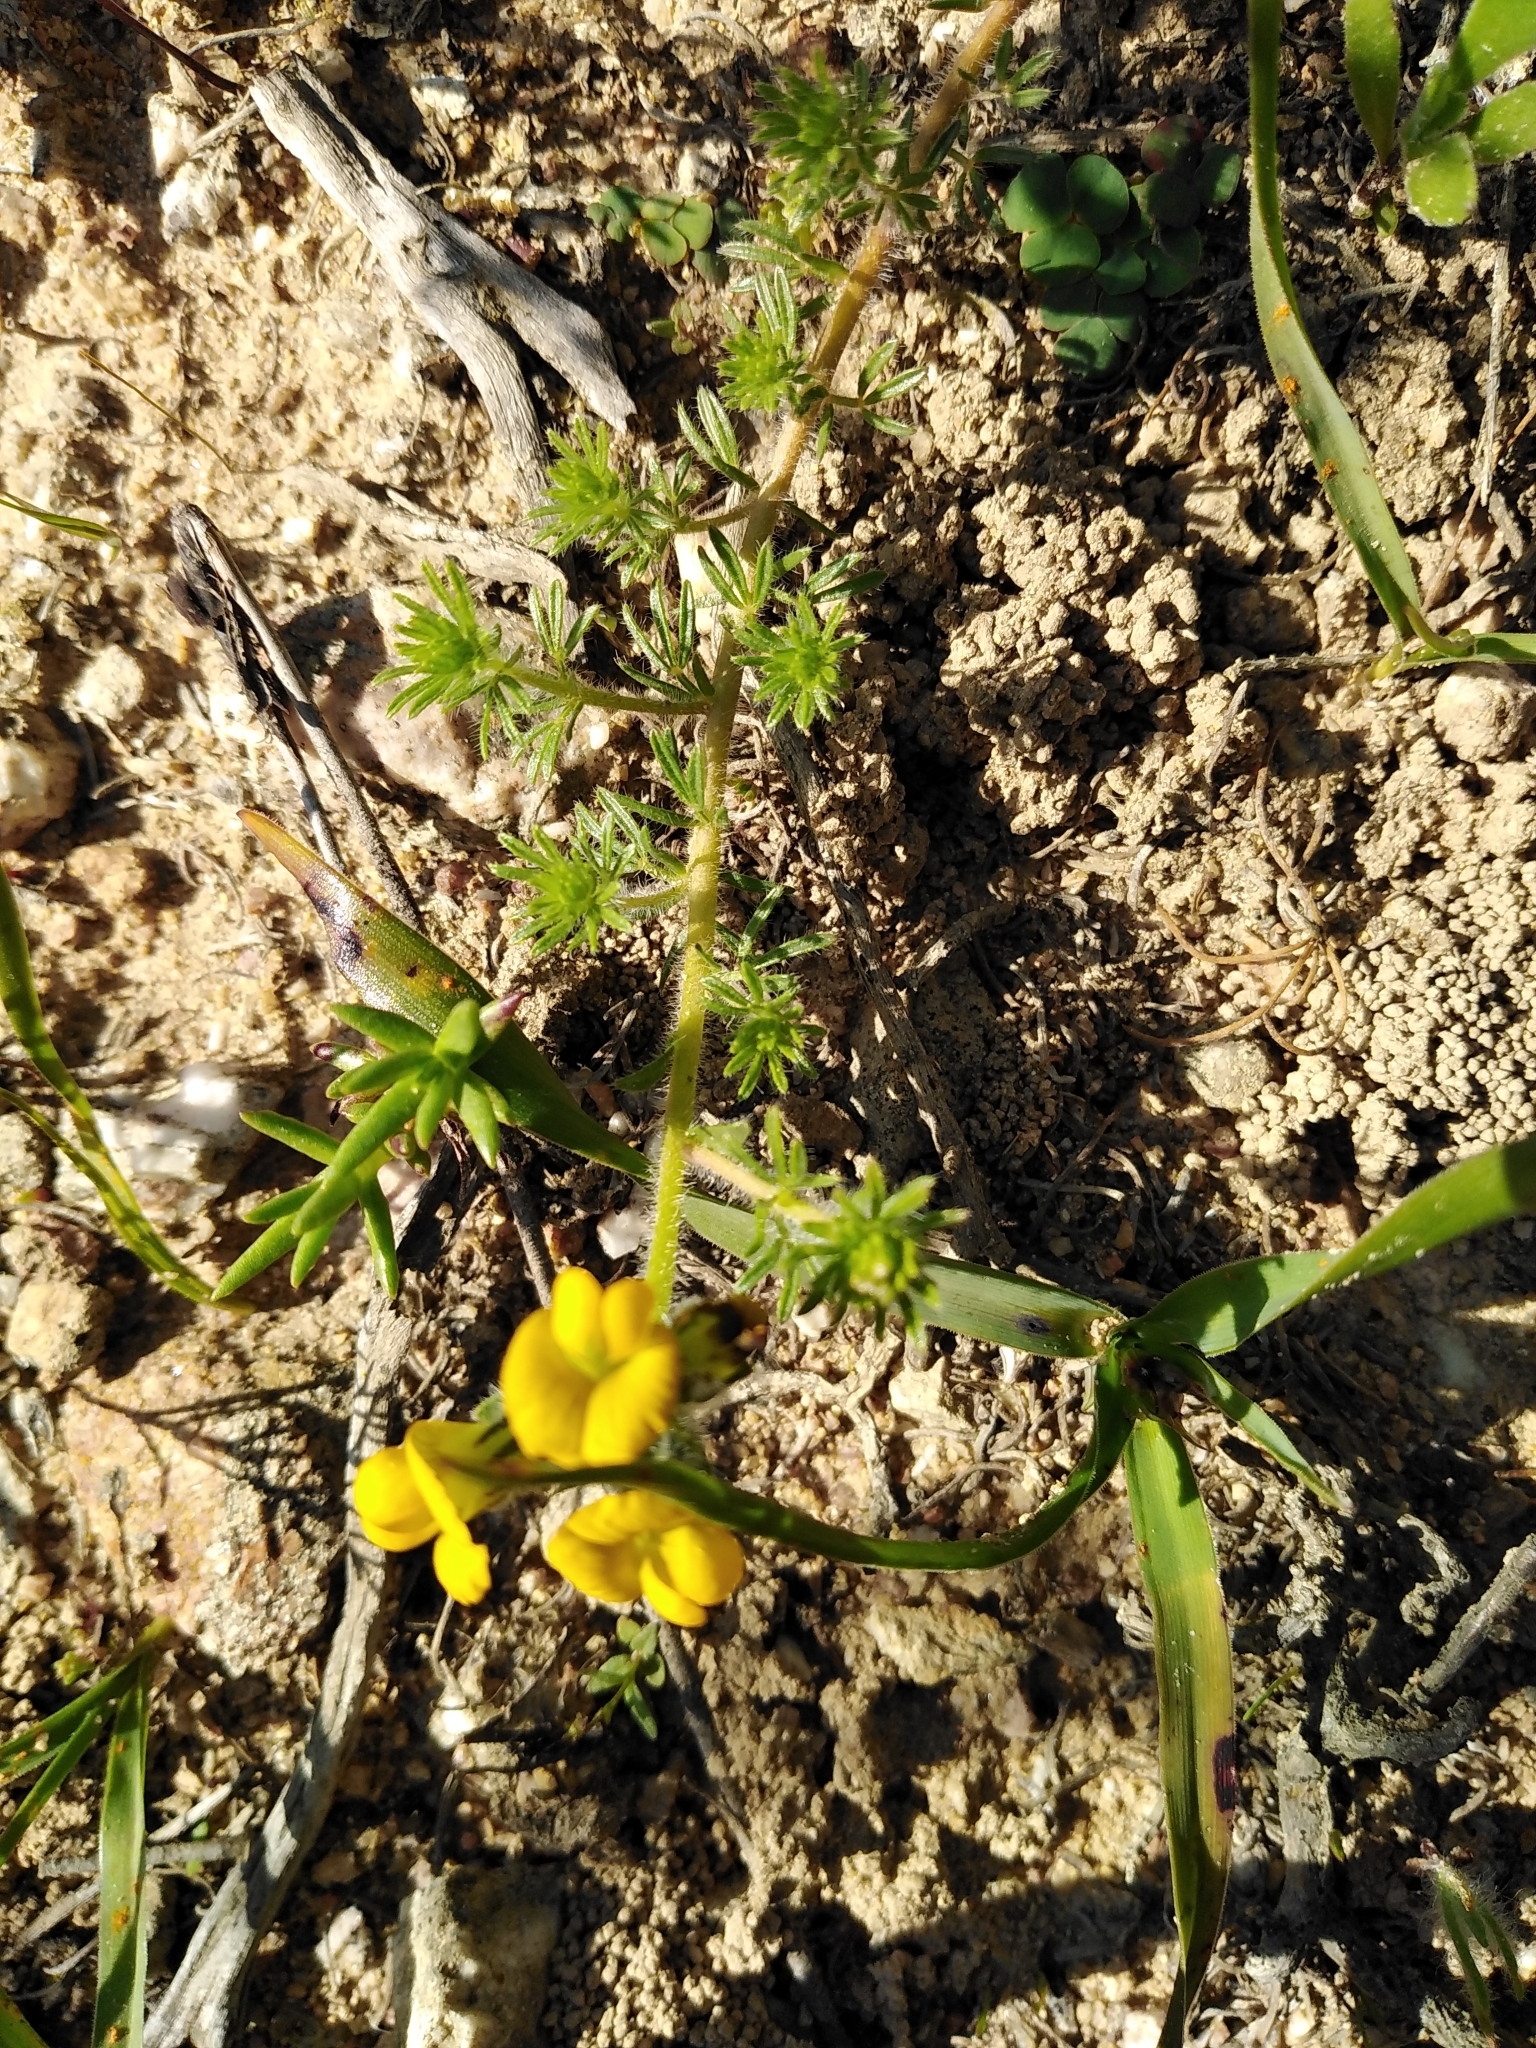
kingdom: Plantae
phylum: Tracheophyta
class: Magnoliopsida
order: Fabales
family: Fabaceae
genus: Lotononis
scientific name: Lotononis involucrata
